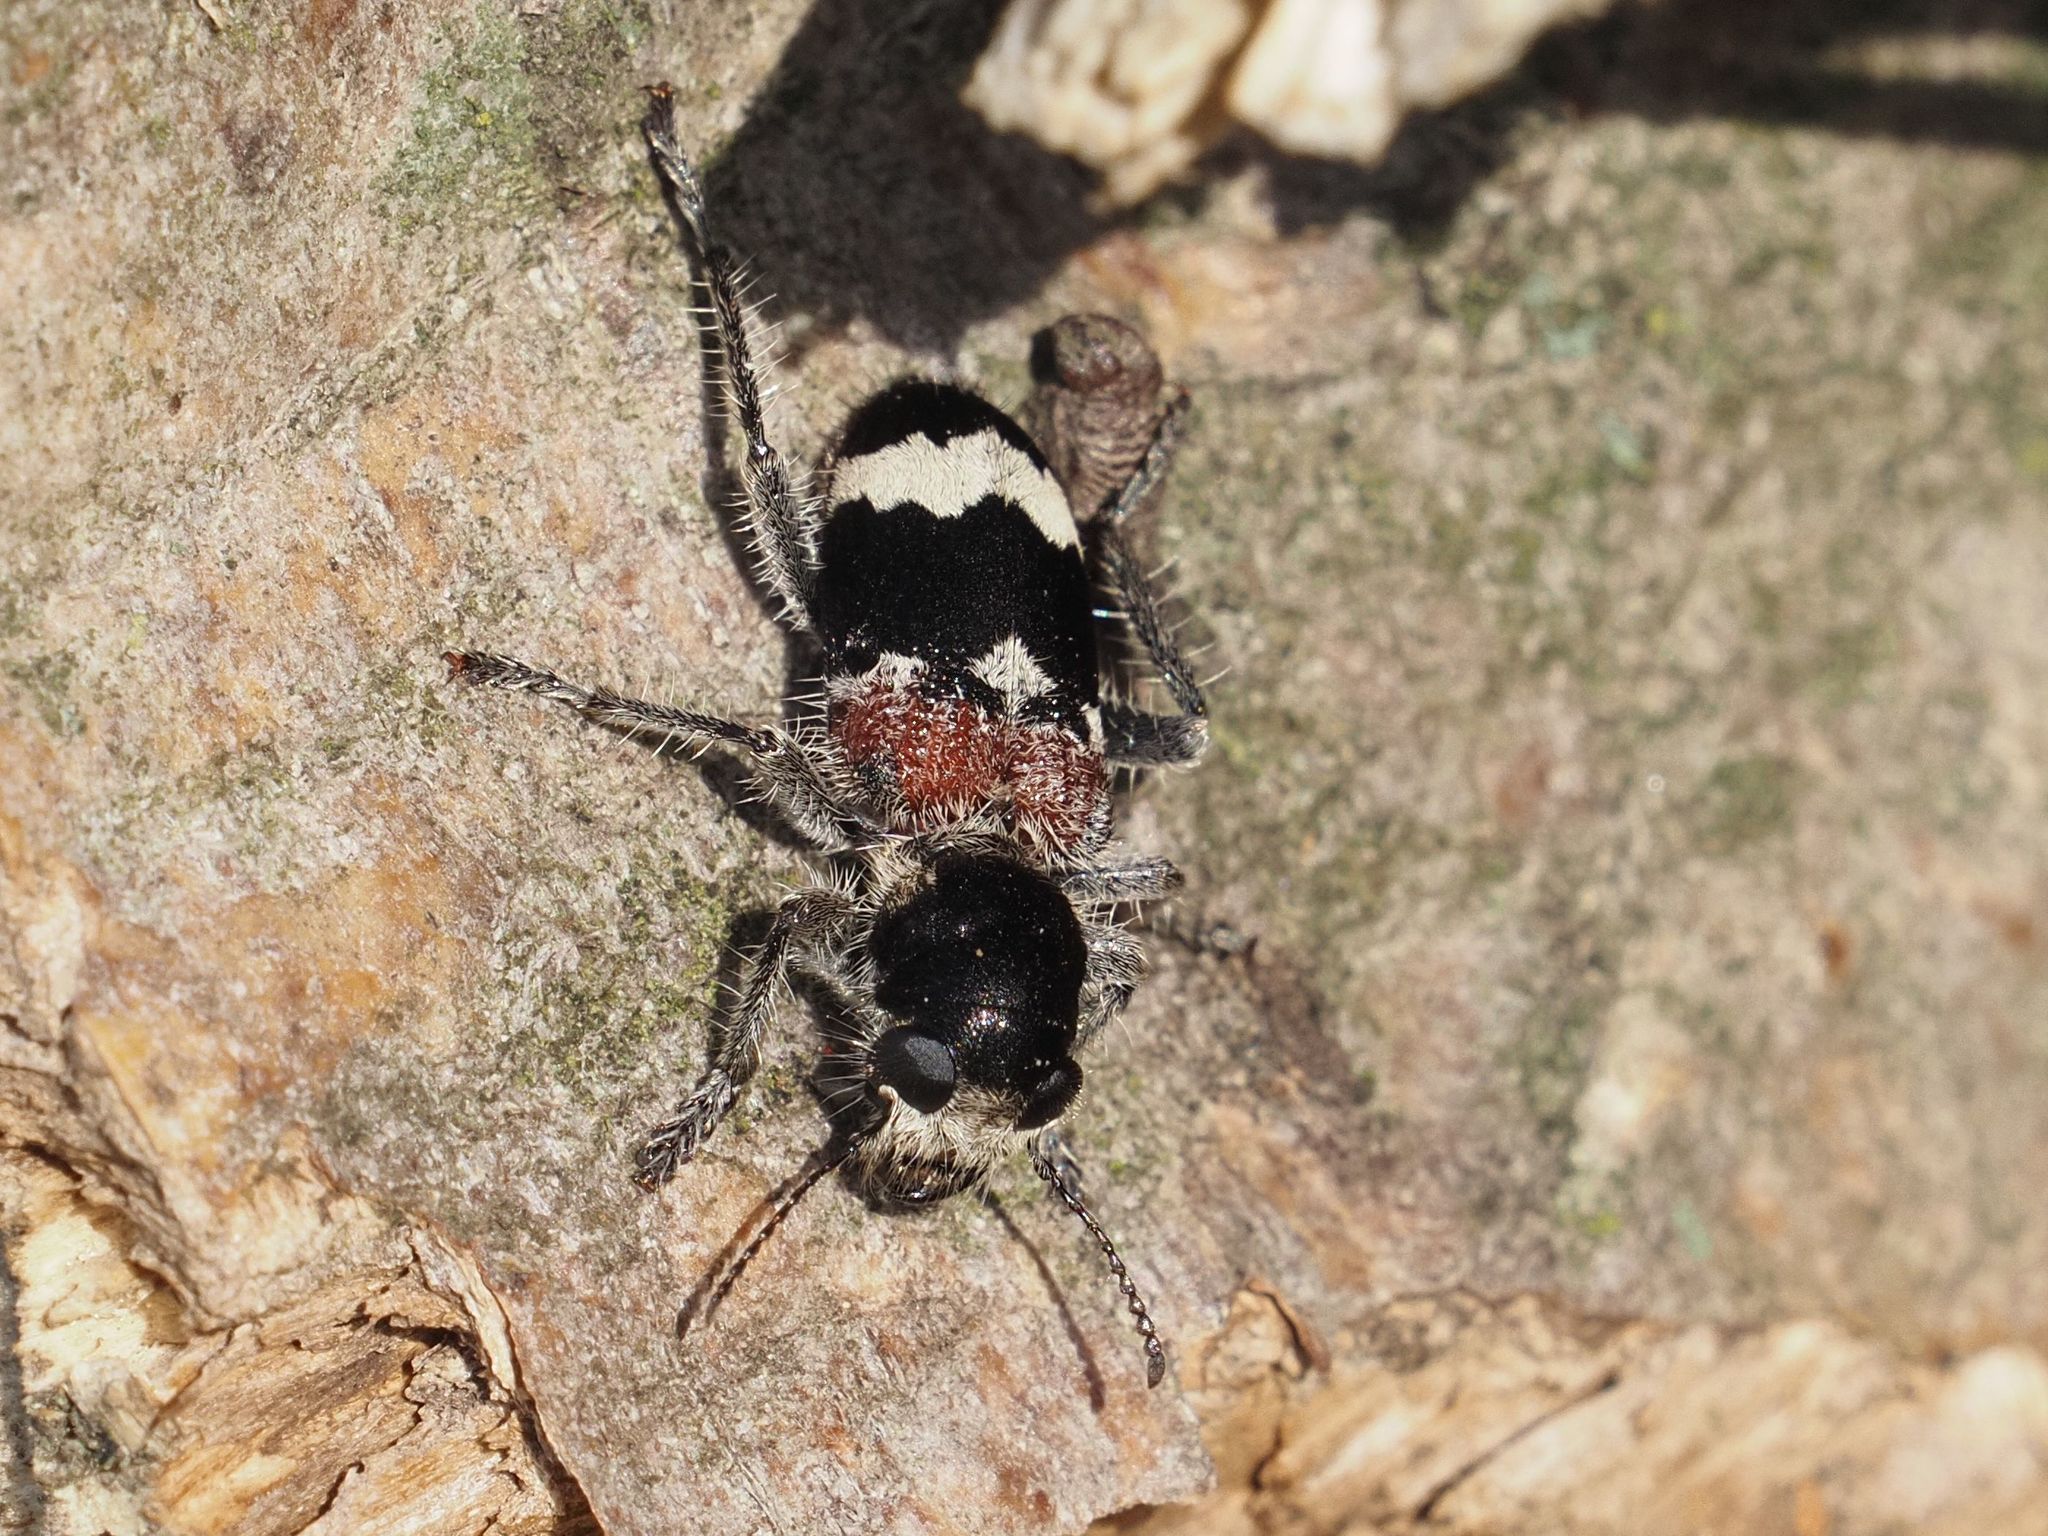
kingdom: Animalia
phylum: Arthropoda
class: Insecta
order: Coleoptera
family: Cleridae
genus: Clerus
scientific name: Clerus mutillarius
